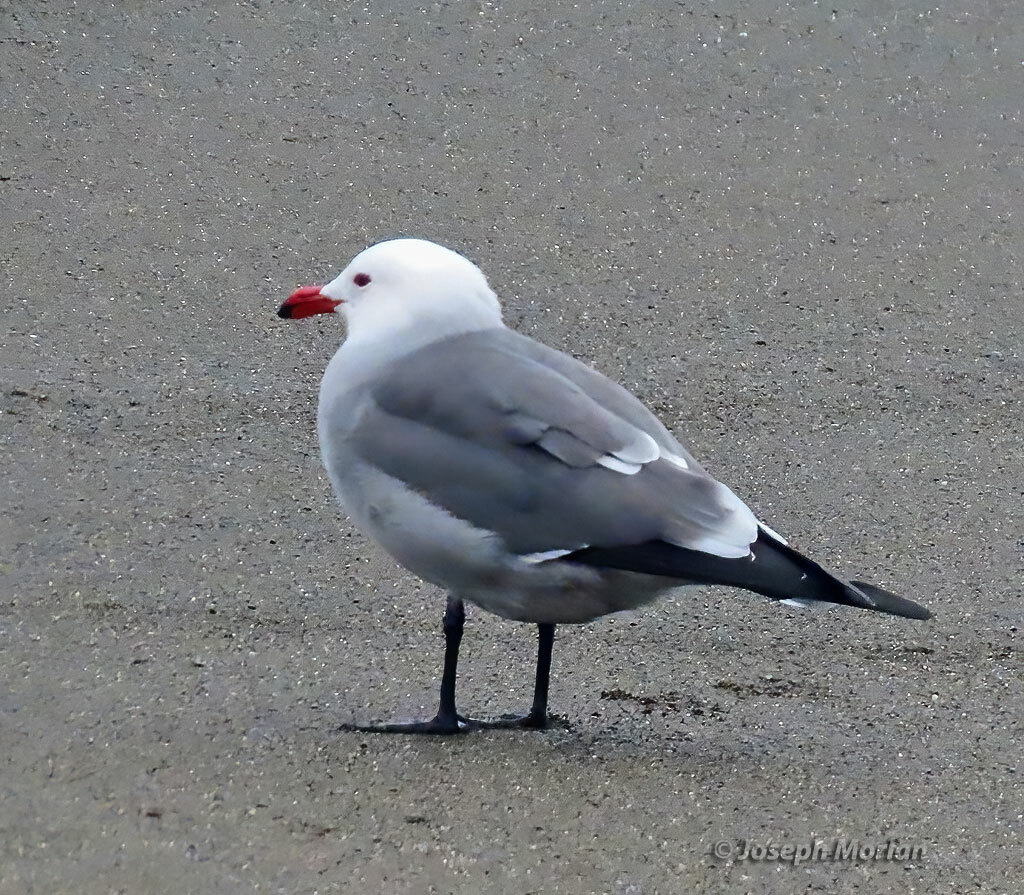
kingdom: Animalia
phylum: Chordata
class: Aves
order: Charadriiformes
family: Laridae
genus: Larus
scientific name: Larus heermanni
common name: Heermann's gull
